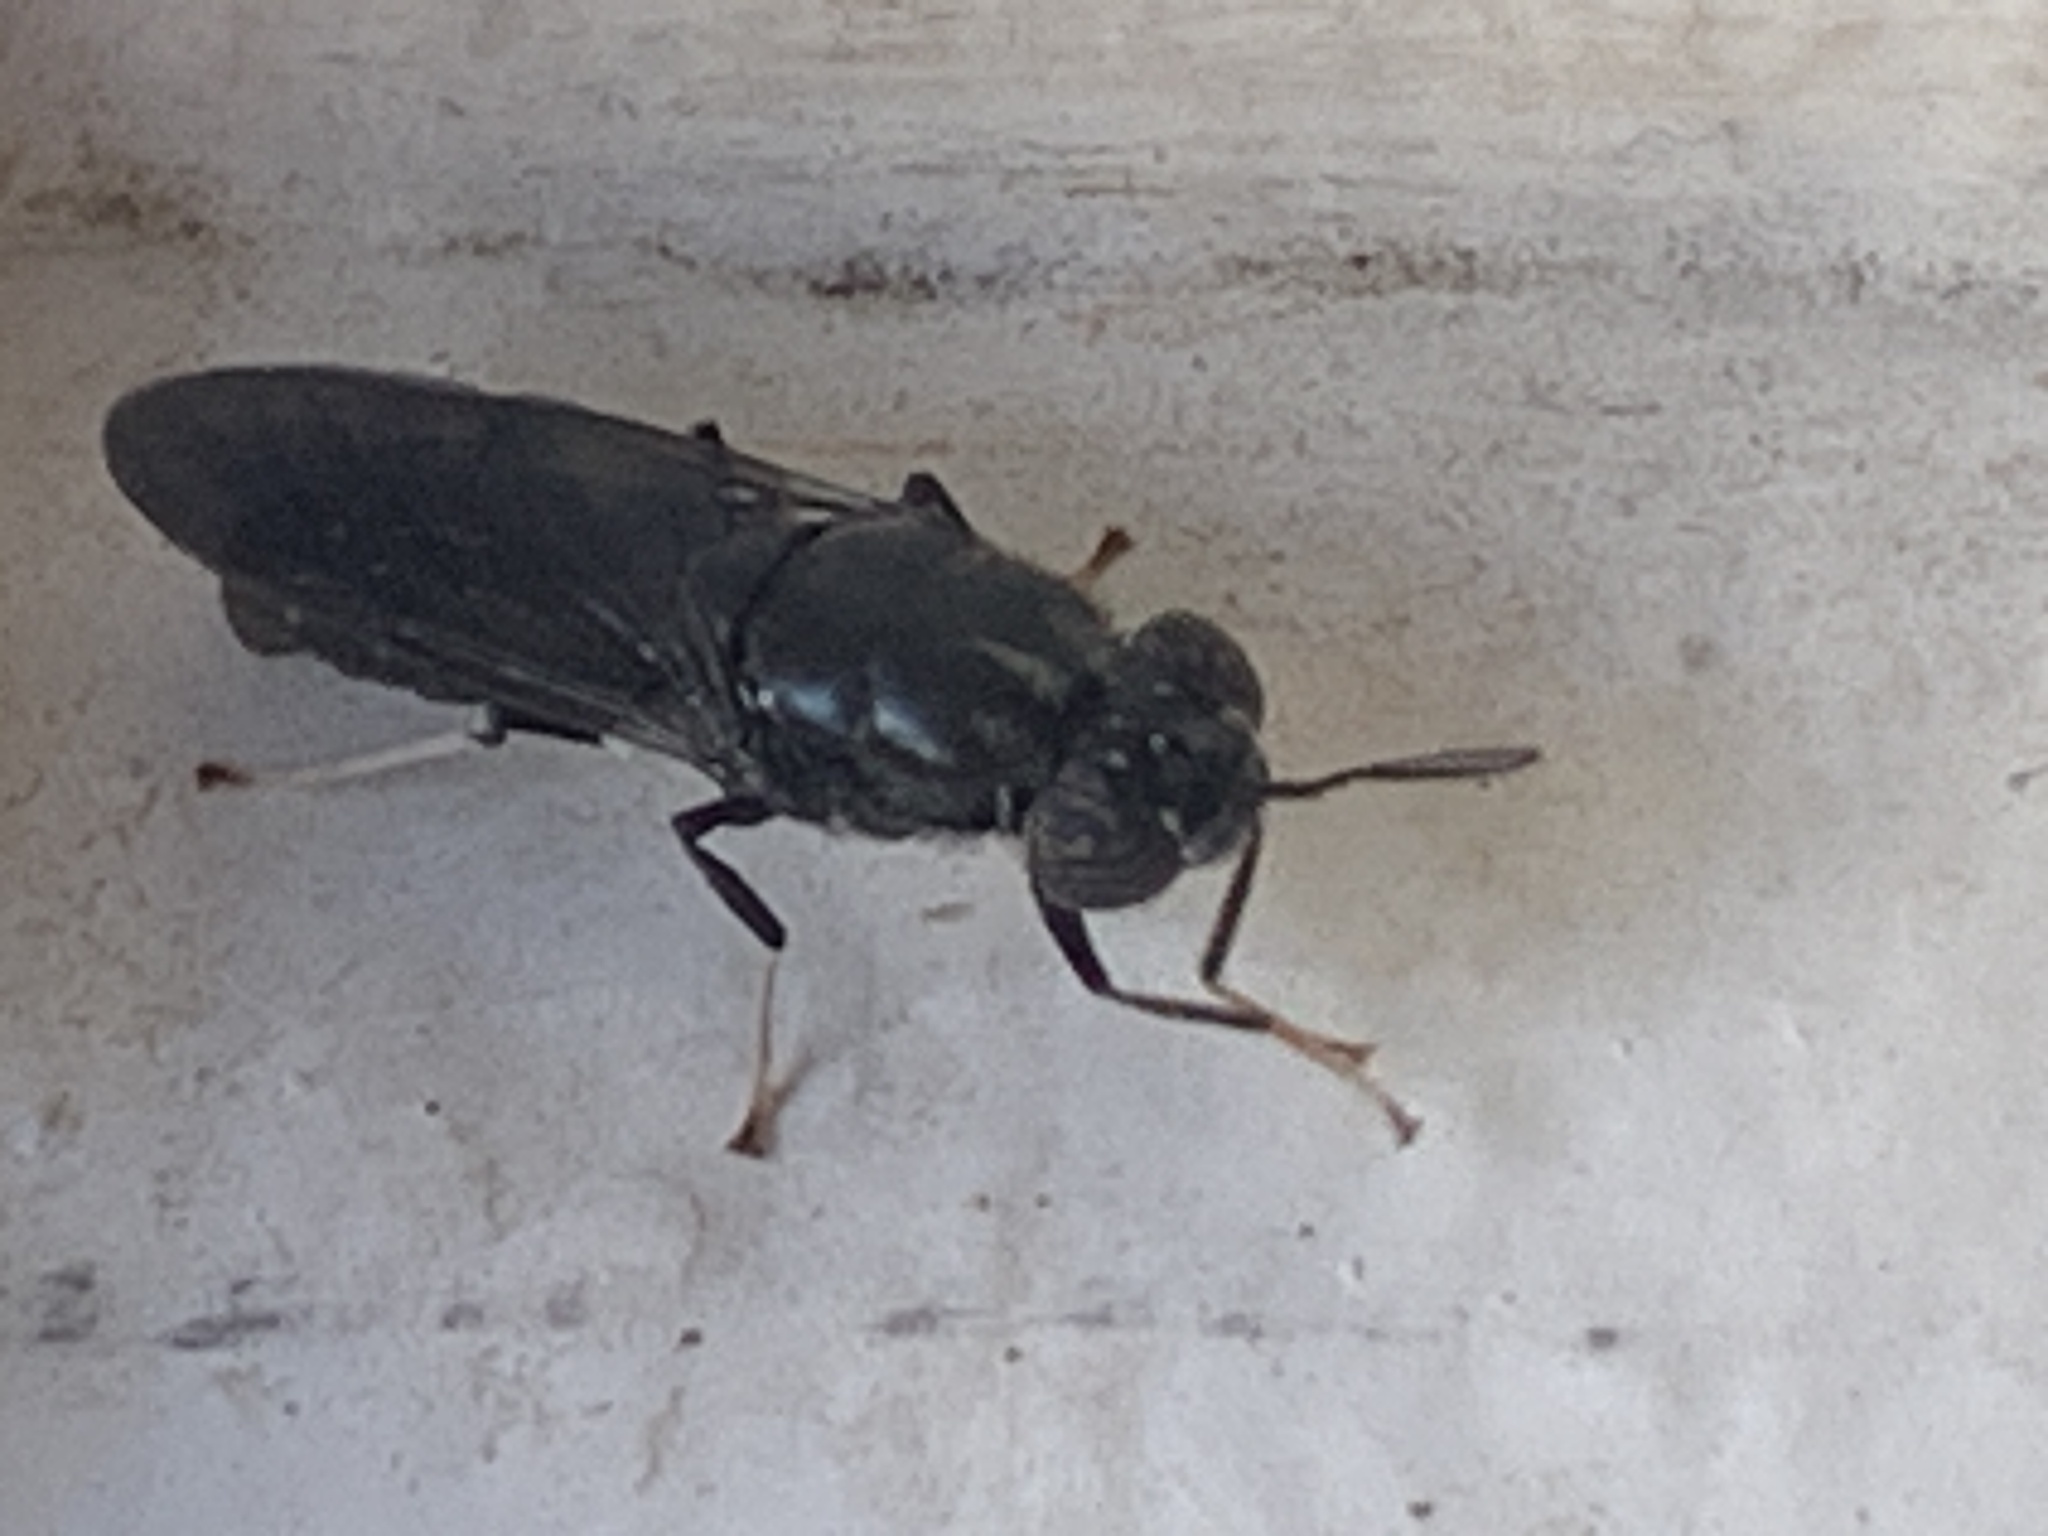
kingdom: Animalia
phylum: Arthropoda
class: Insecta
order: Diptera
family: Stratiomyidae
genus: Hermetia
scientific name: Hermetia illucens
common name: Black soldier fly
